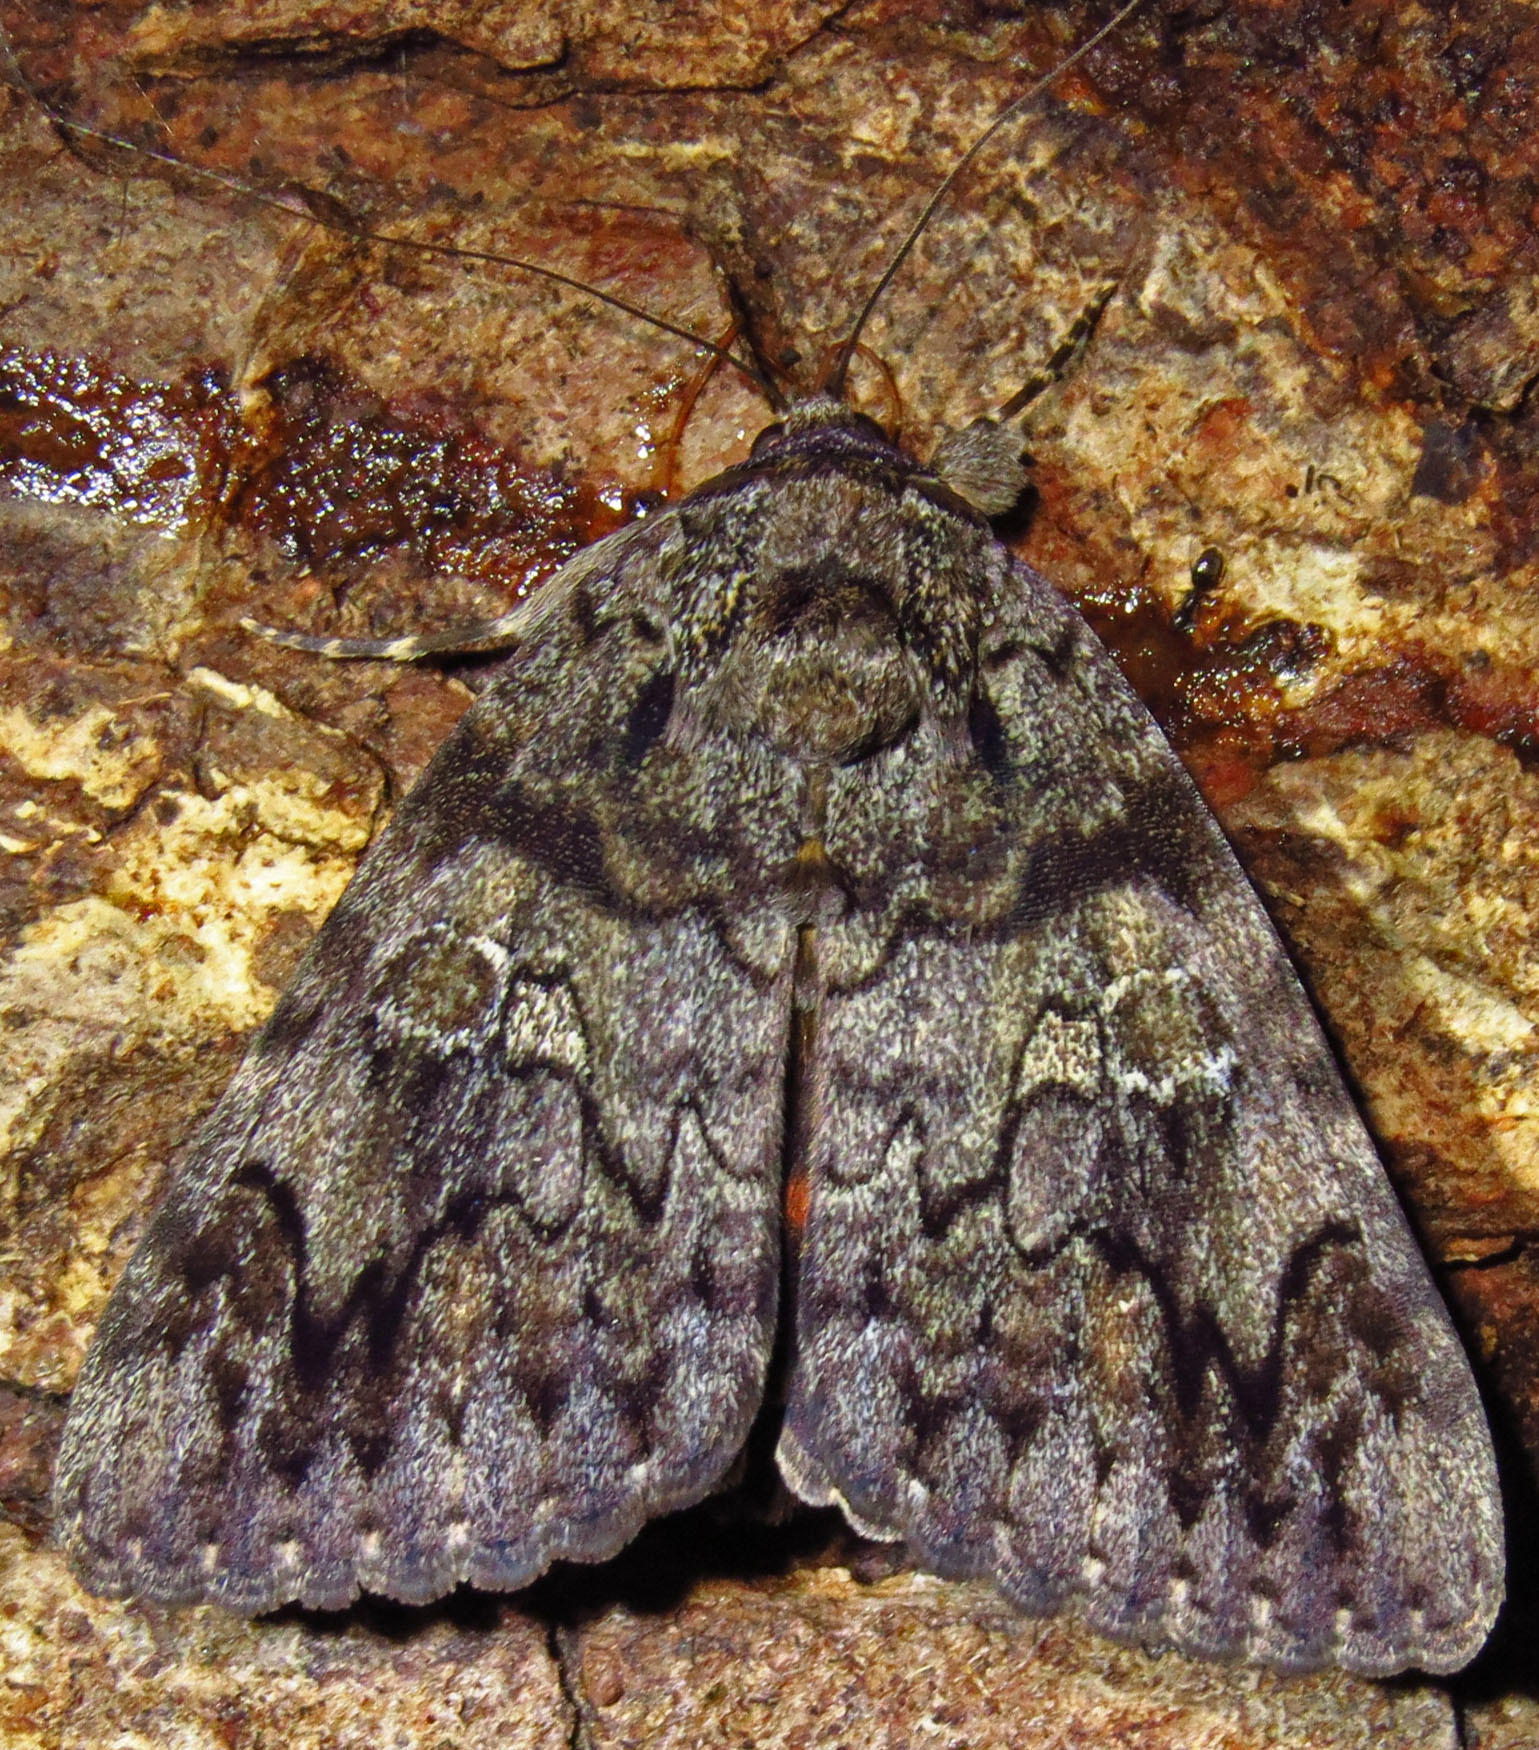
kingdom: Animalia
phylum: Arthropoda
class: Insecta
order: Lepidoptera
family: Erebidae
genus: Catocala
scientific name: Catocala ilia
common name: Ilia underwing
